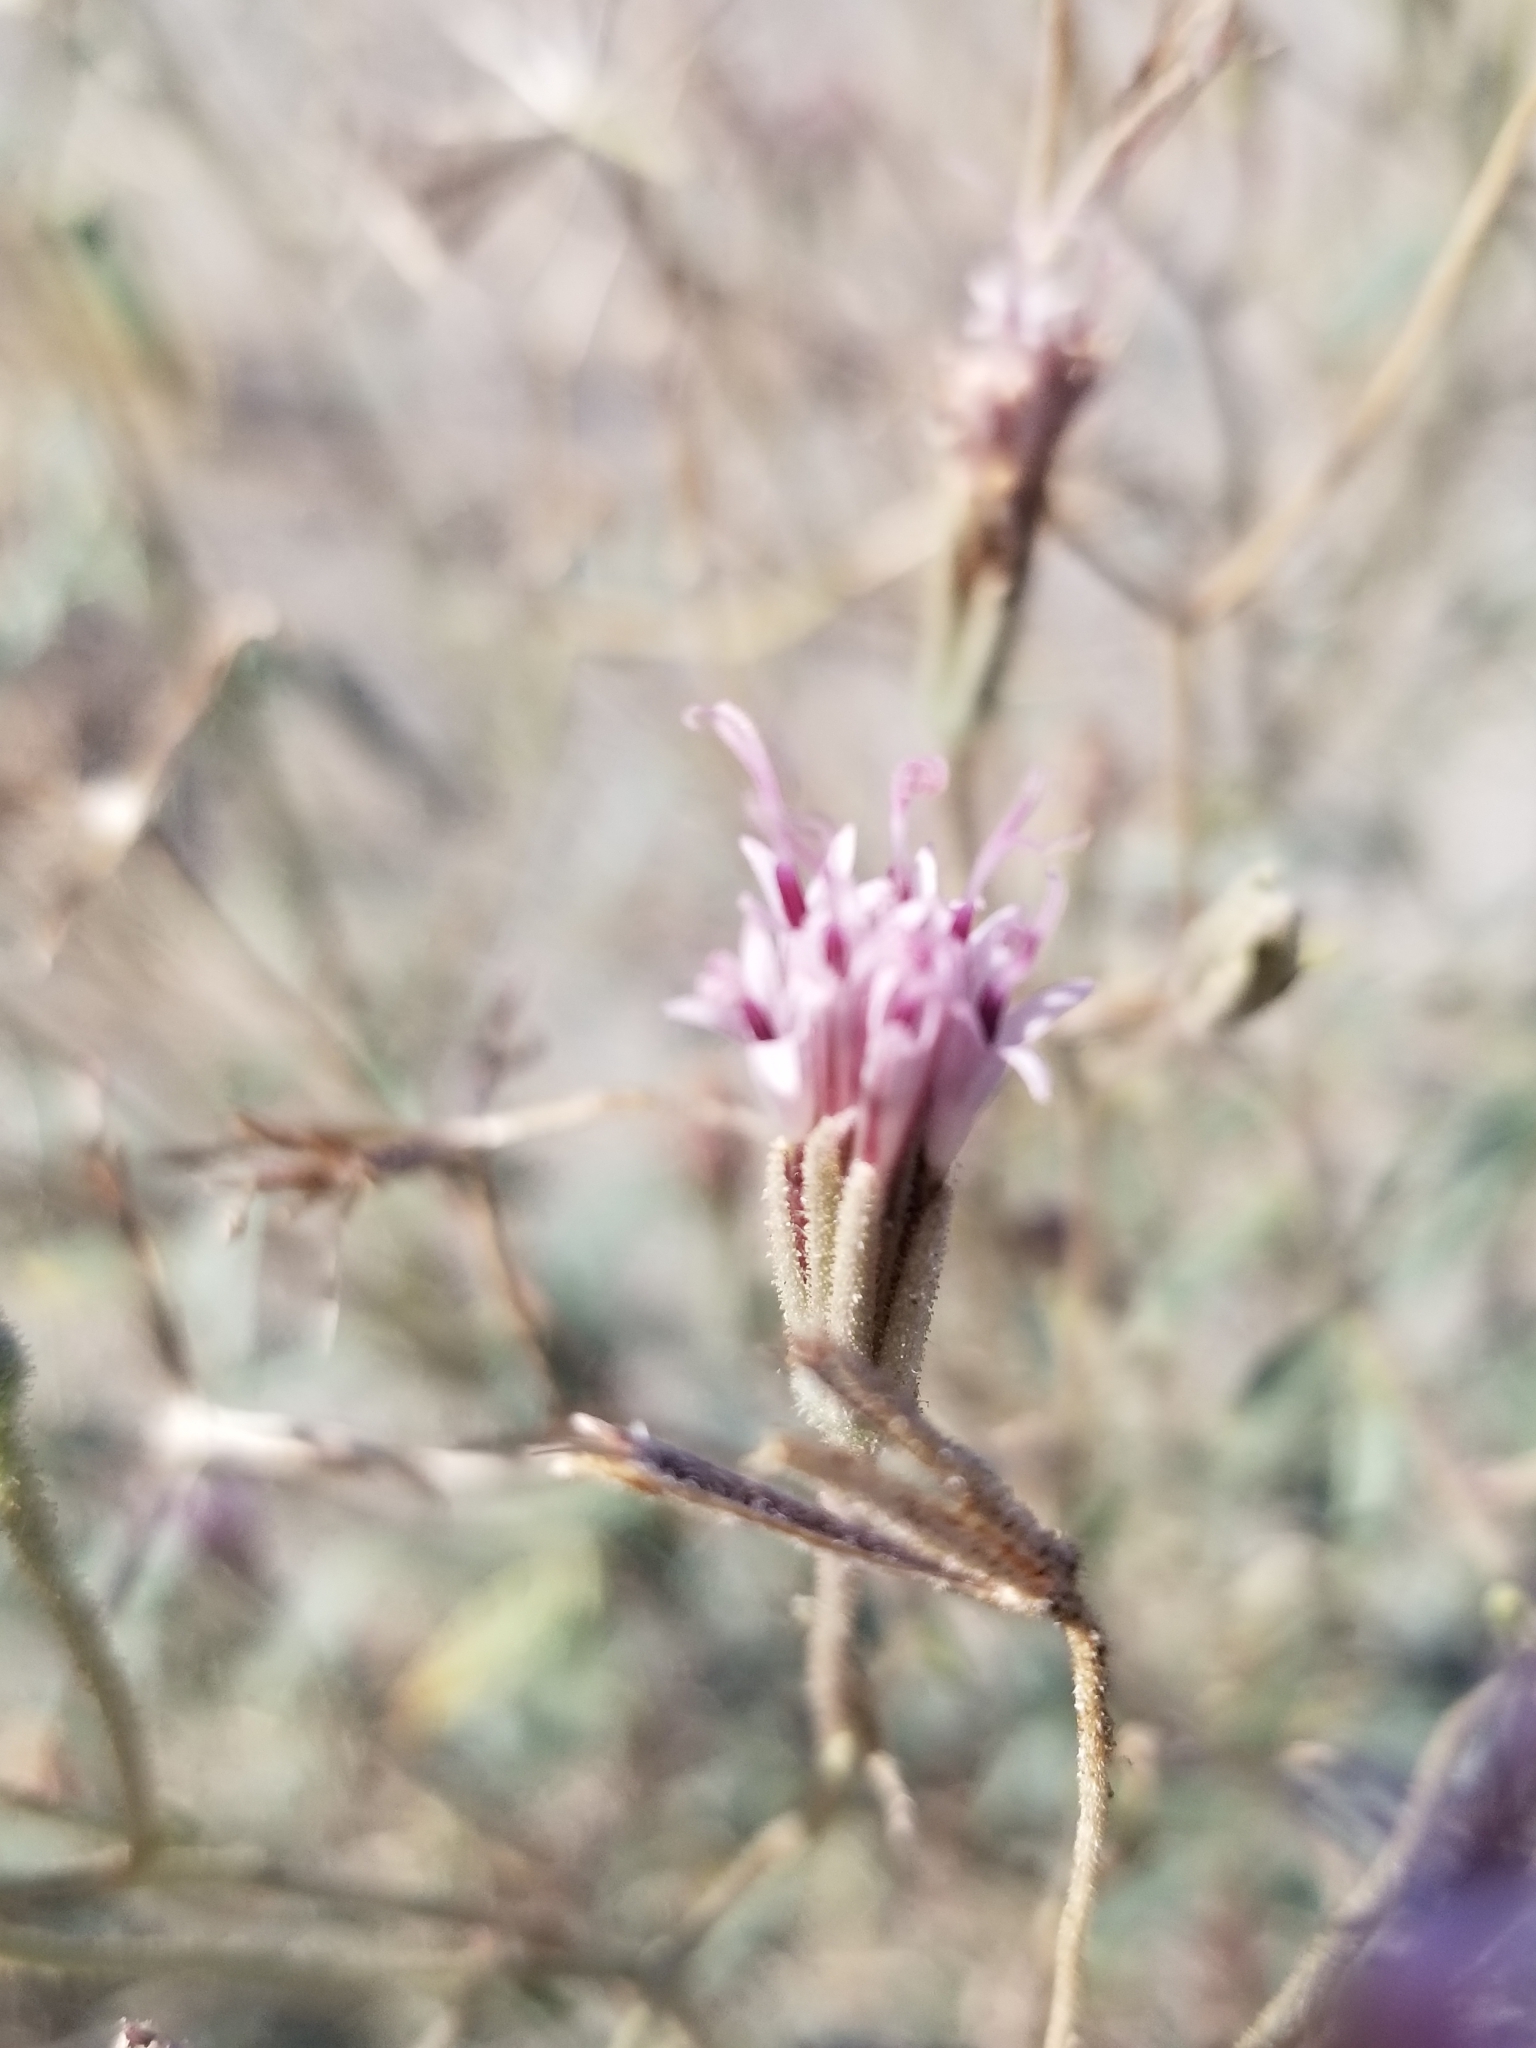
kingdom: Plantae
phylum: Tracheophyta
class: Magnoliopsida
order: Asterales
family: Asteraceae
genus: Palafoxia
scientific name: Palafoxia arida
